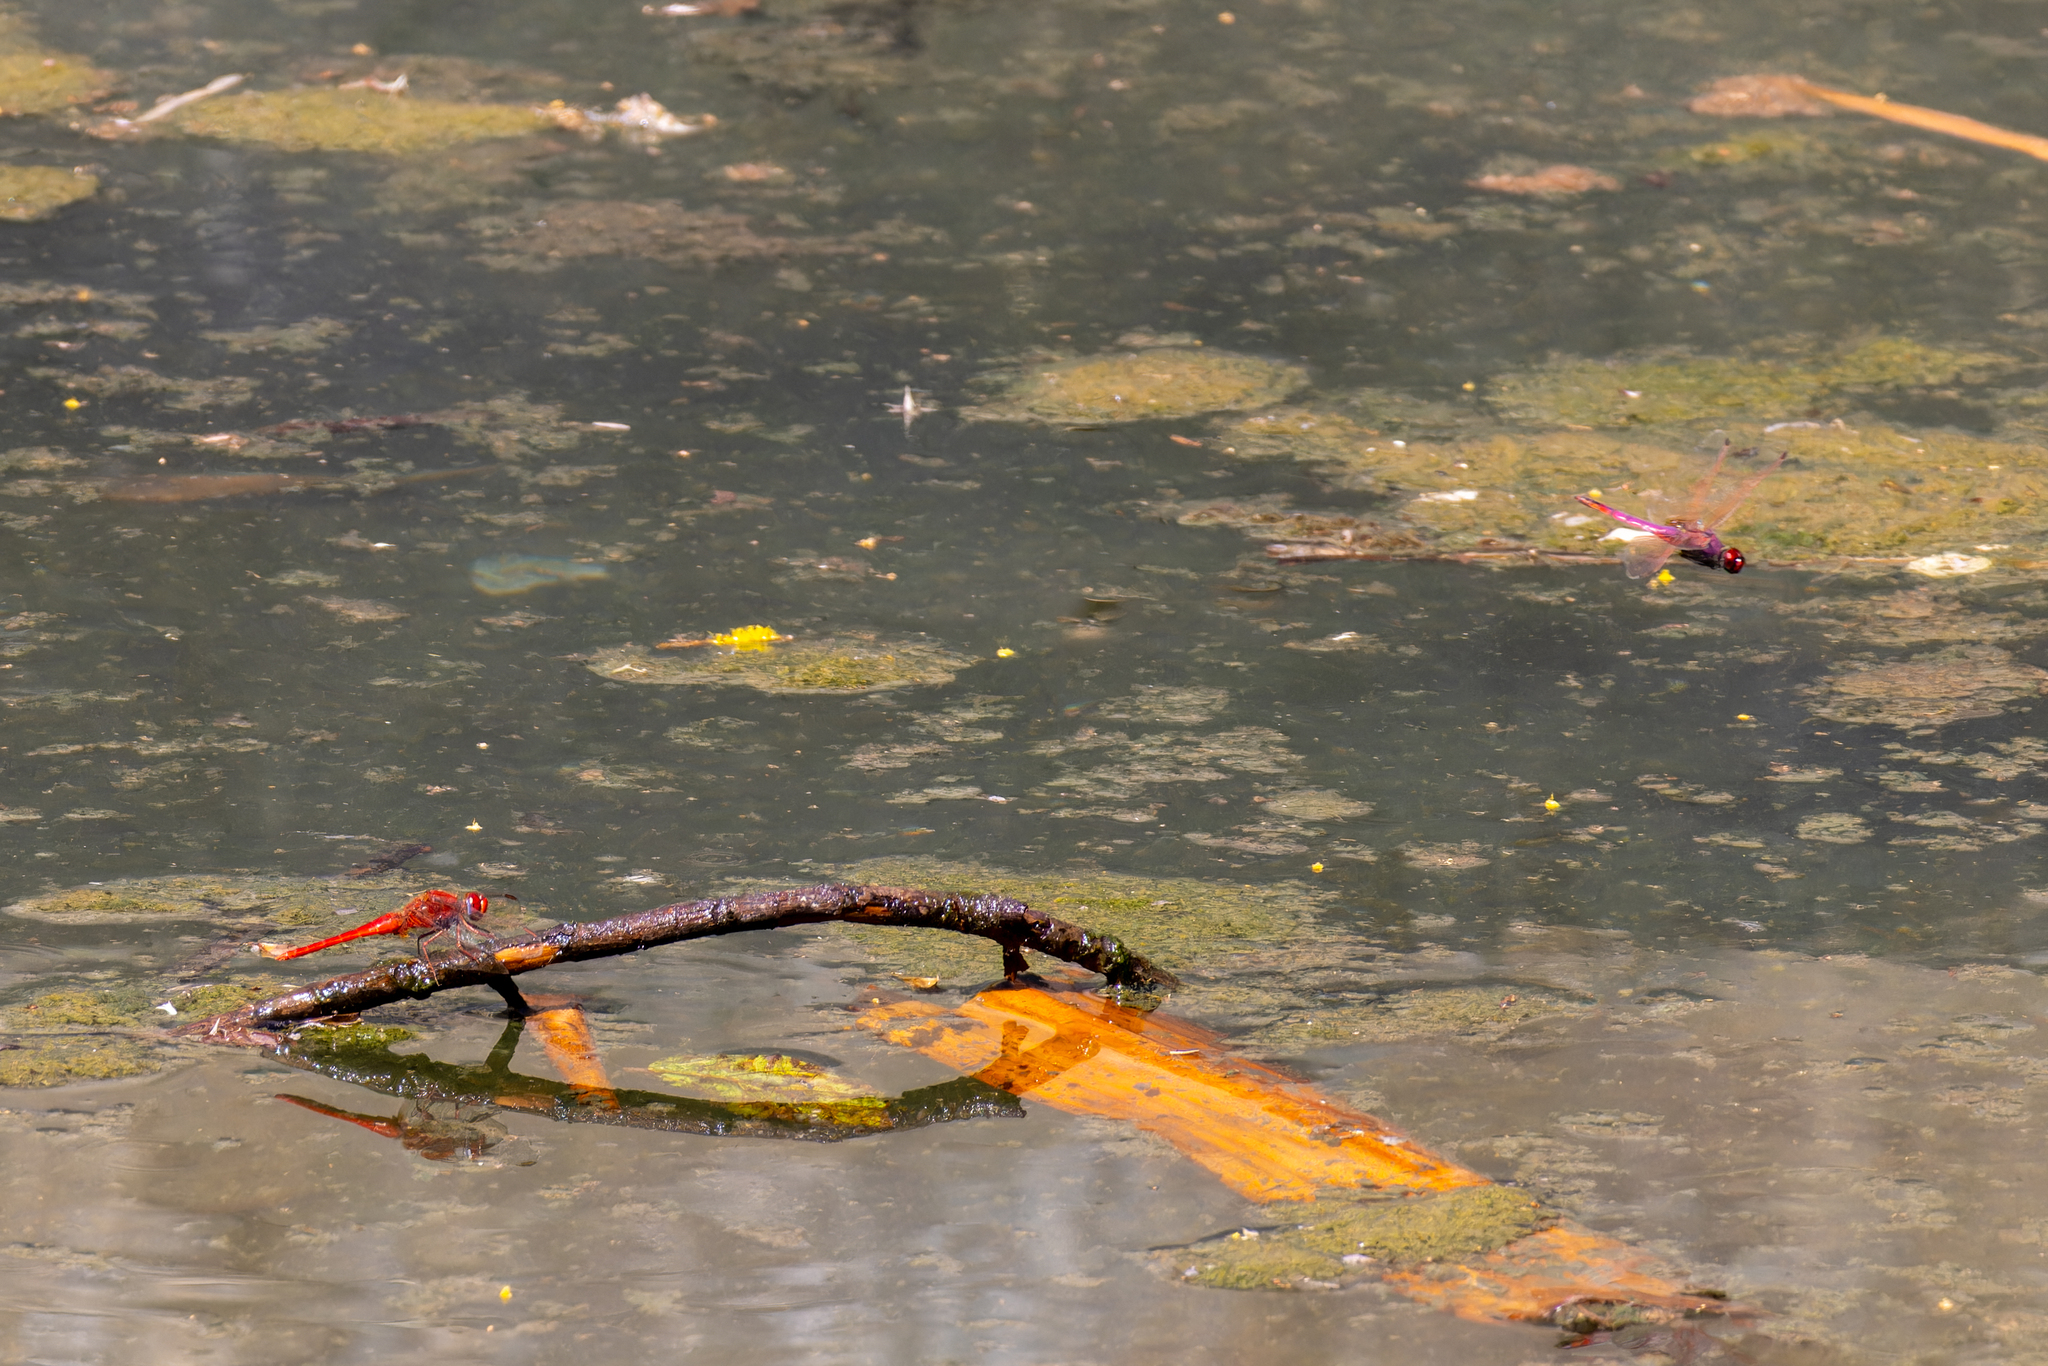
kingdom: Animalia
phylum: Arthropoda
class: Insecta
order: Odonata
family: Libellulidae
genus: Crocothemis
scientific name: Crocothemis erythraea
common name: Scarlet dragonfly
